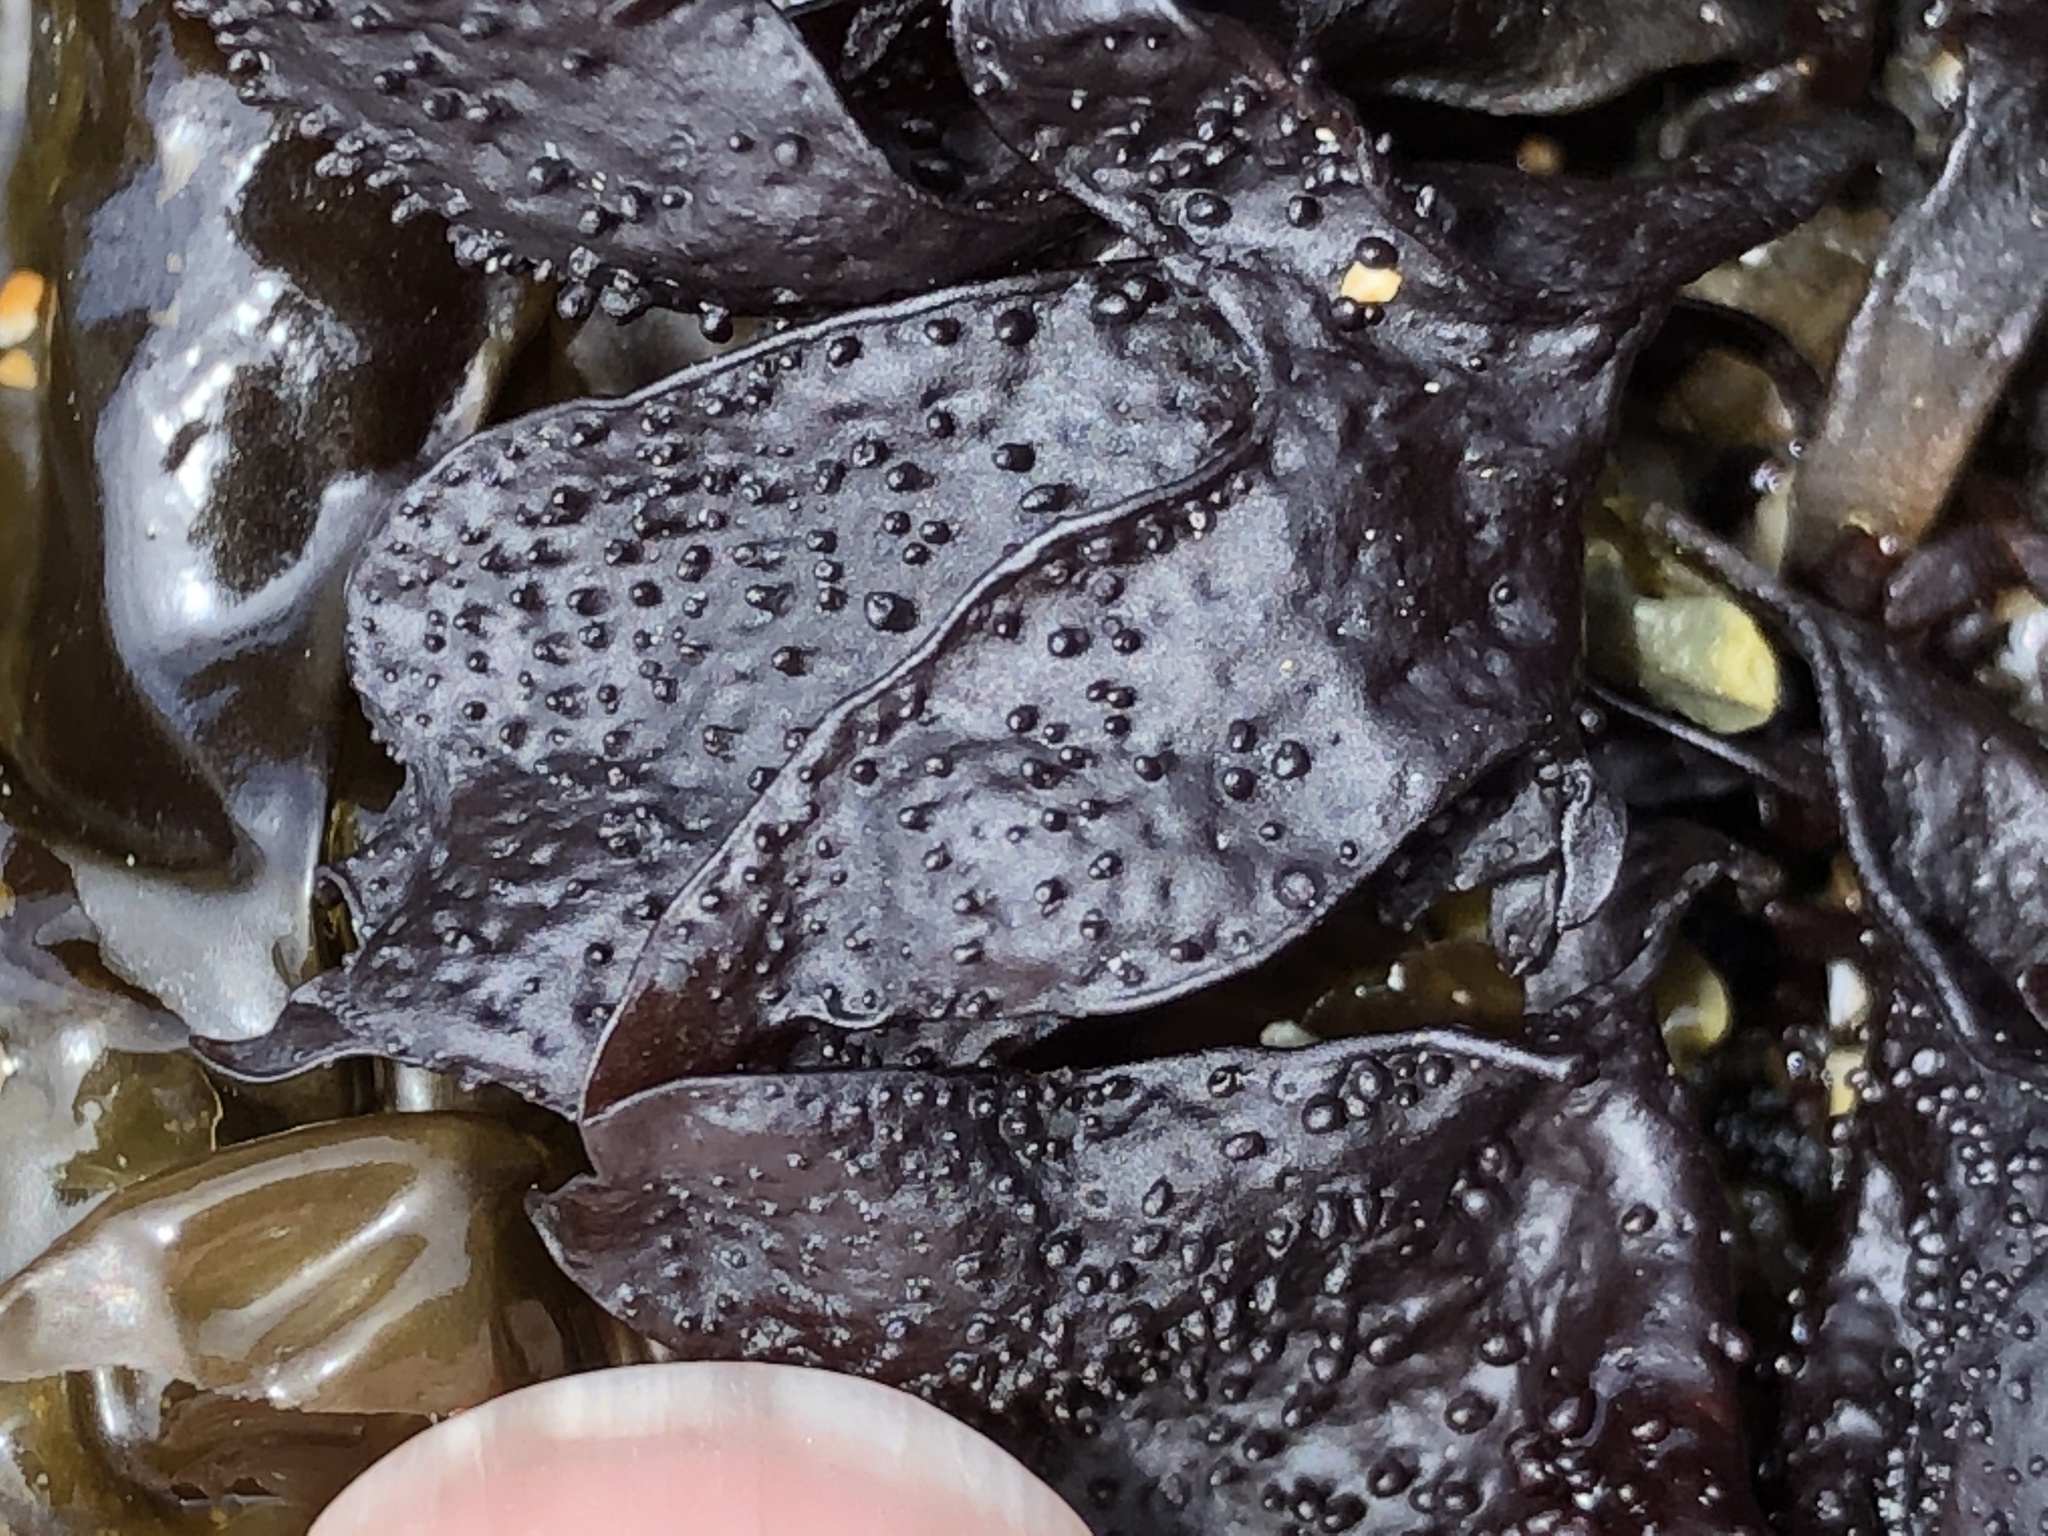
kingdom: Plantae
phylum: Rhodophyta
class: Florideophyceae
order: Gigartinales
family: Phyllophoraceae
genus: Mastocarpus
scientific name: Mastocarpus papillatus
